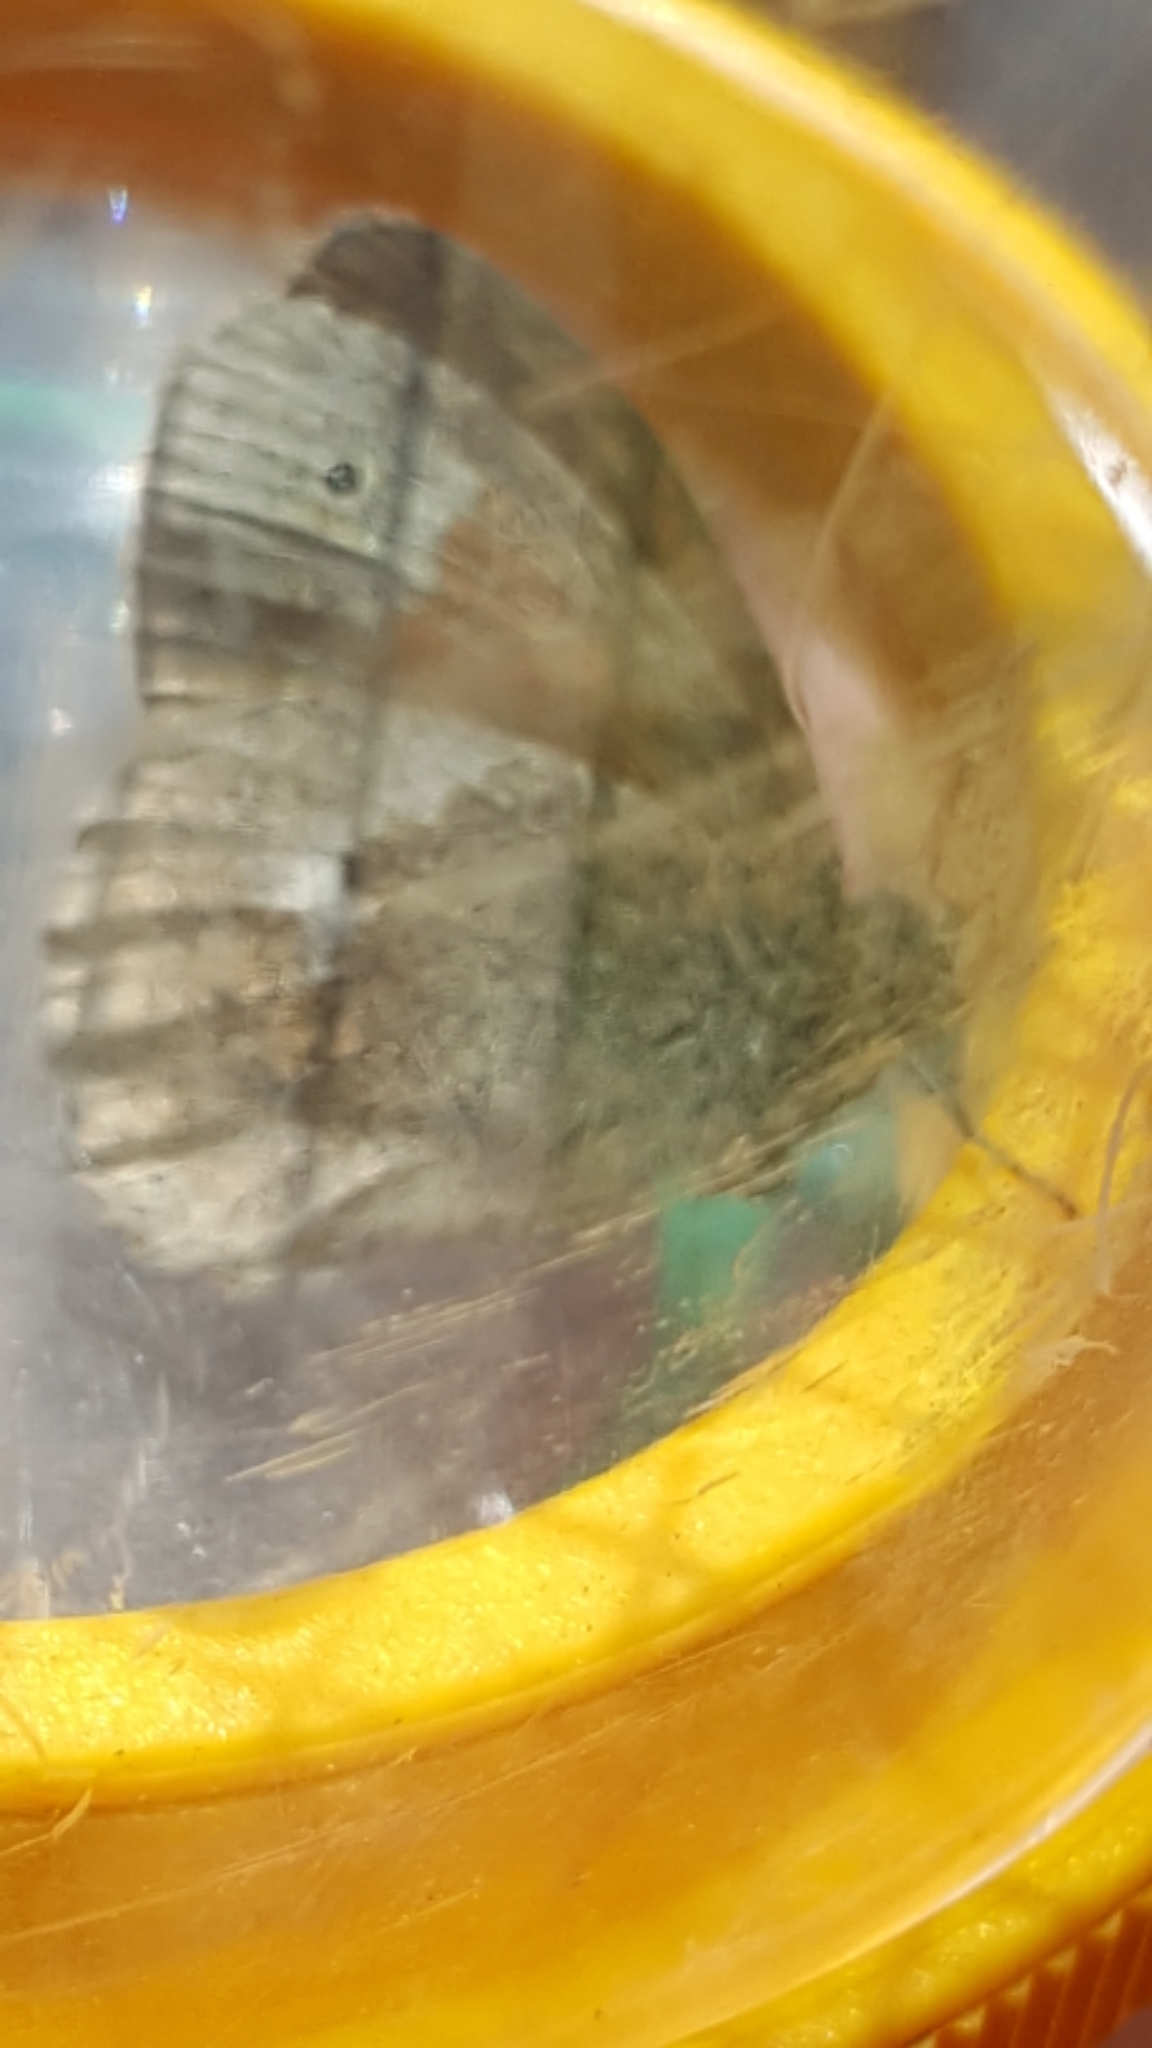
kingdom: Animalia
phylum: Arthropoda
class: Insecta
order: Lepidoptera
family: Nymphalidae
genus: Coenonympha
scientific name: Coenonympha california
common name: Common ringlet
